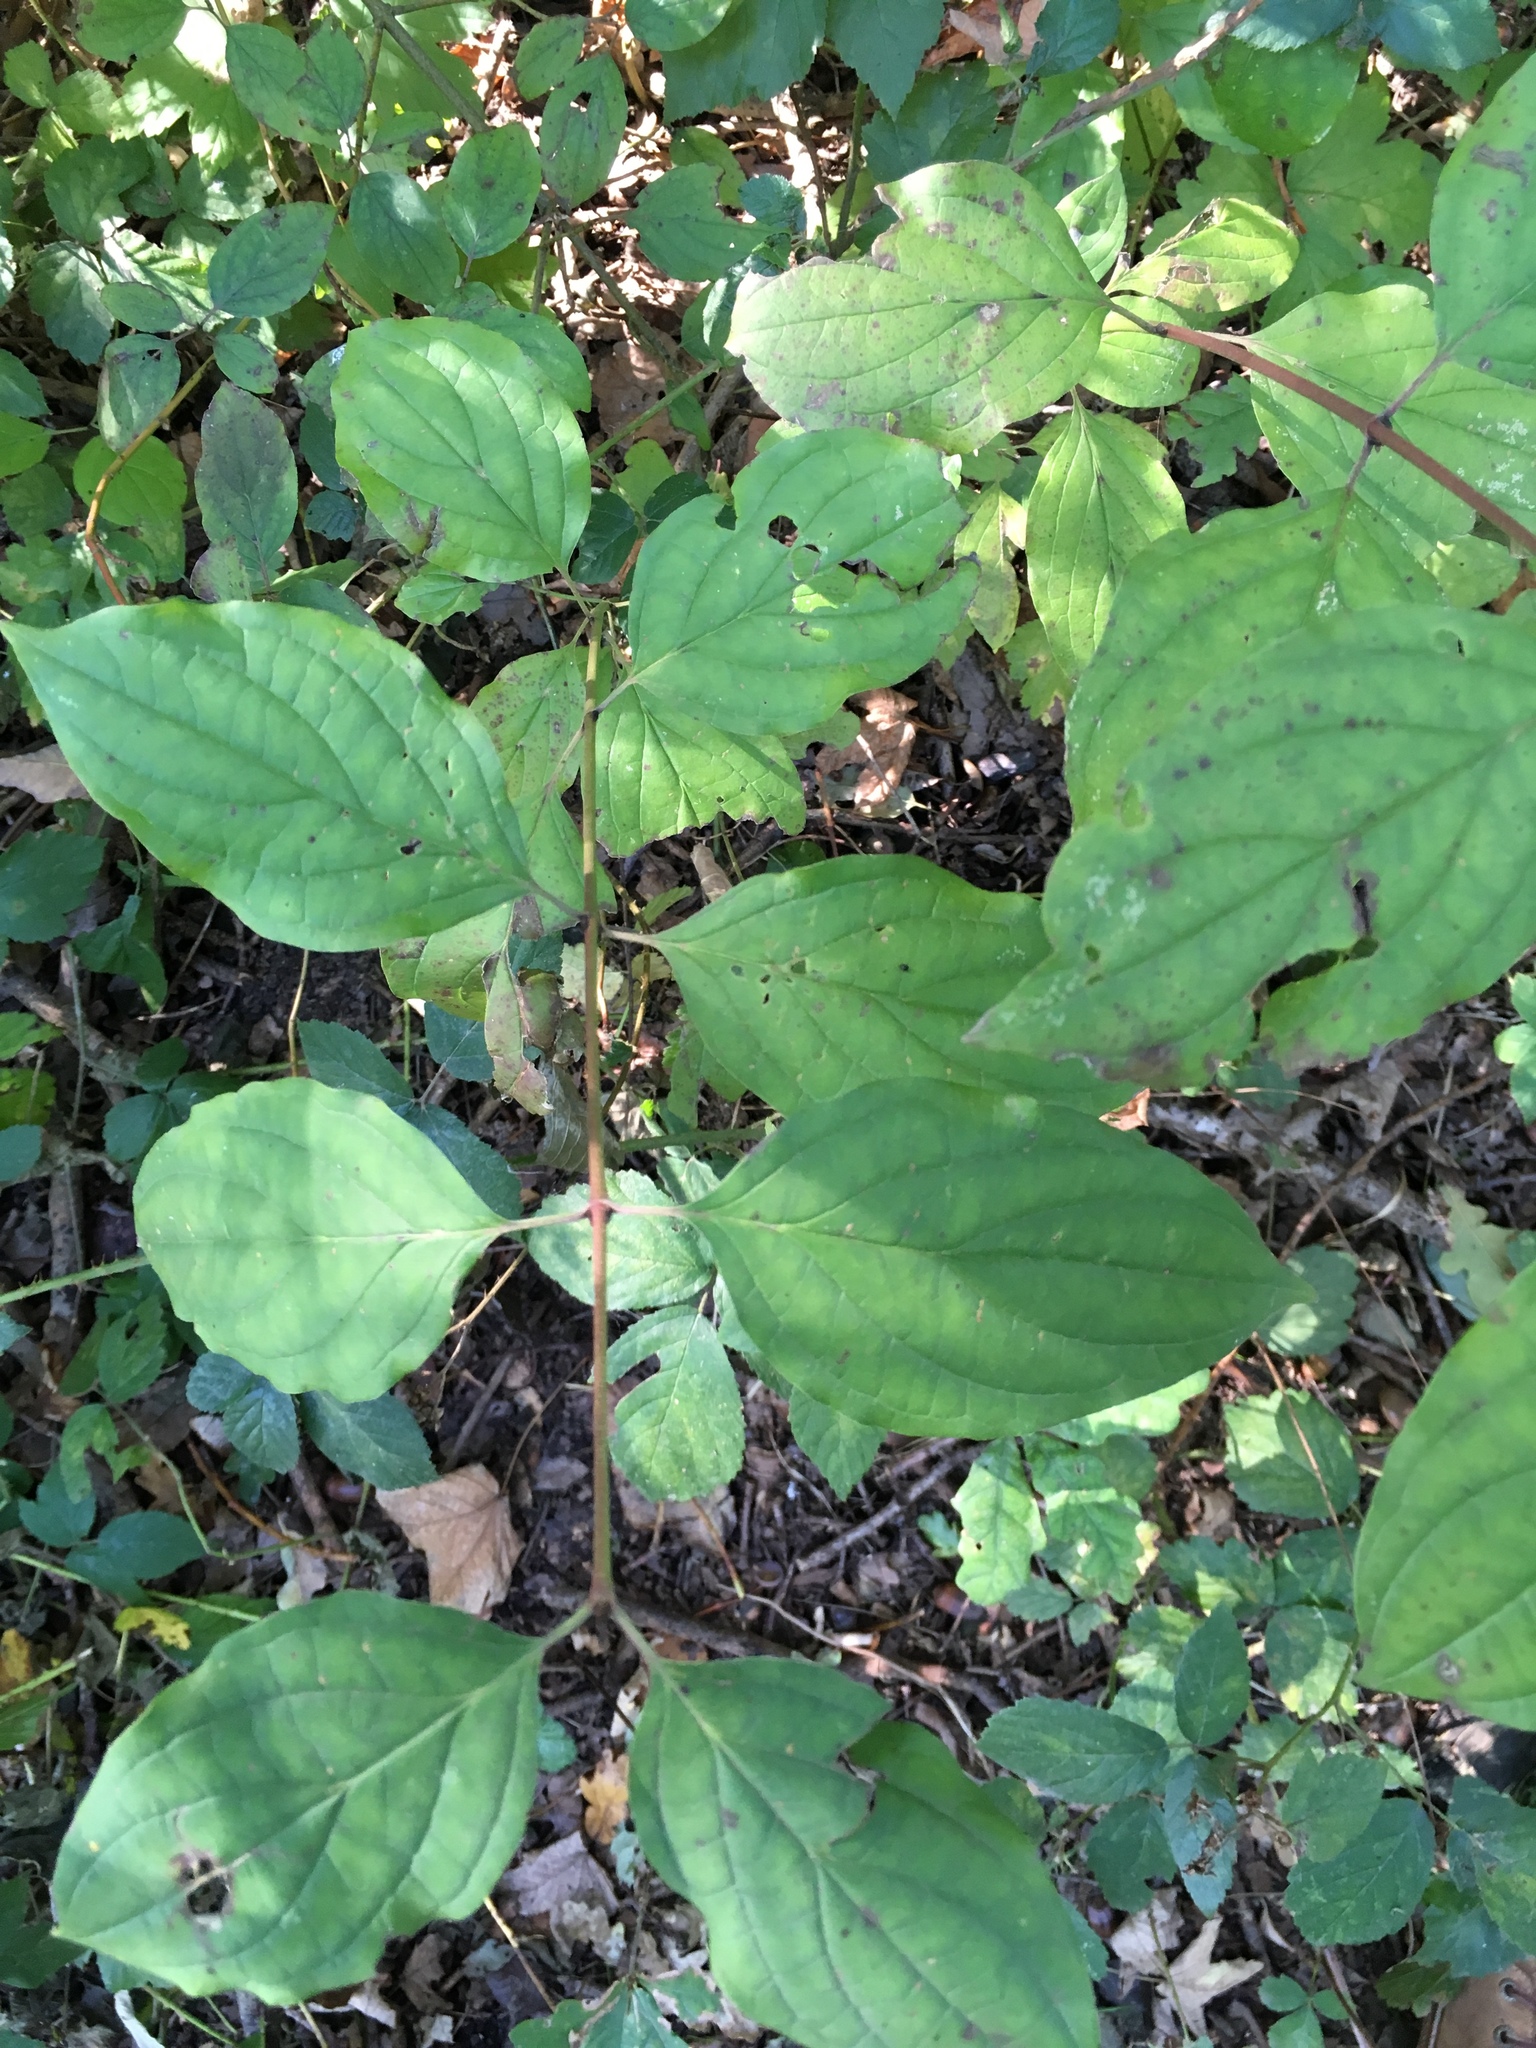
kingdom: Plantae
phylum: Tracheophyta
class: Magnoliopsida
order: Cornales
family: Cornaceae
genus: Cornus
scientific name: Cornus sanguinea
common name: Dogwood
